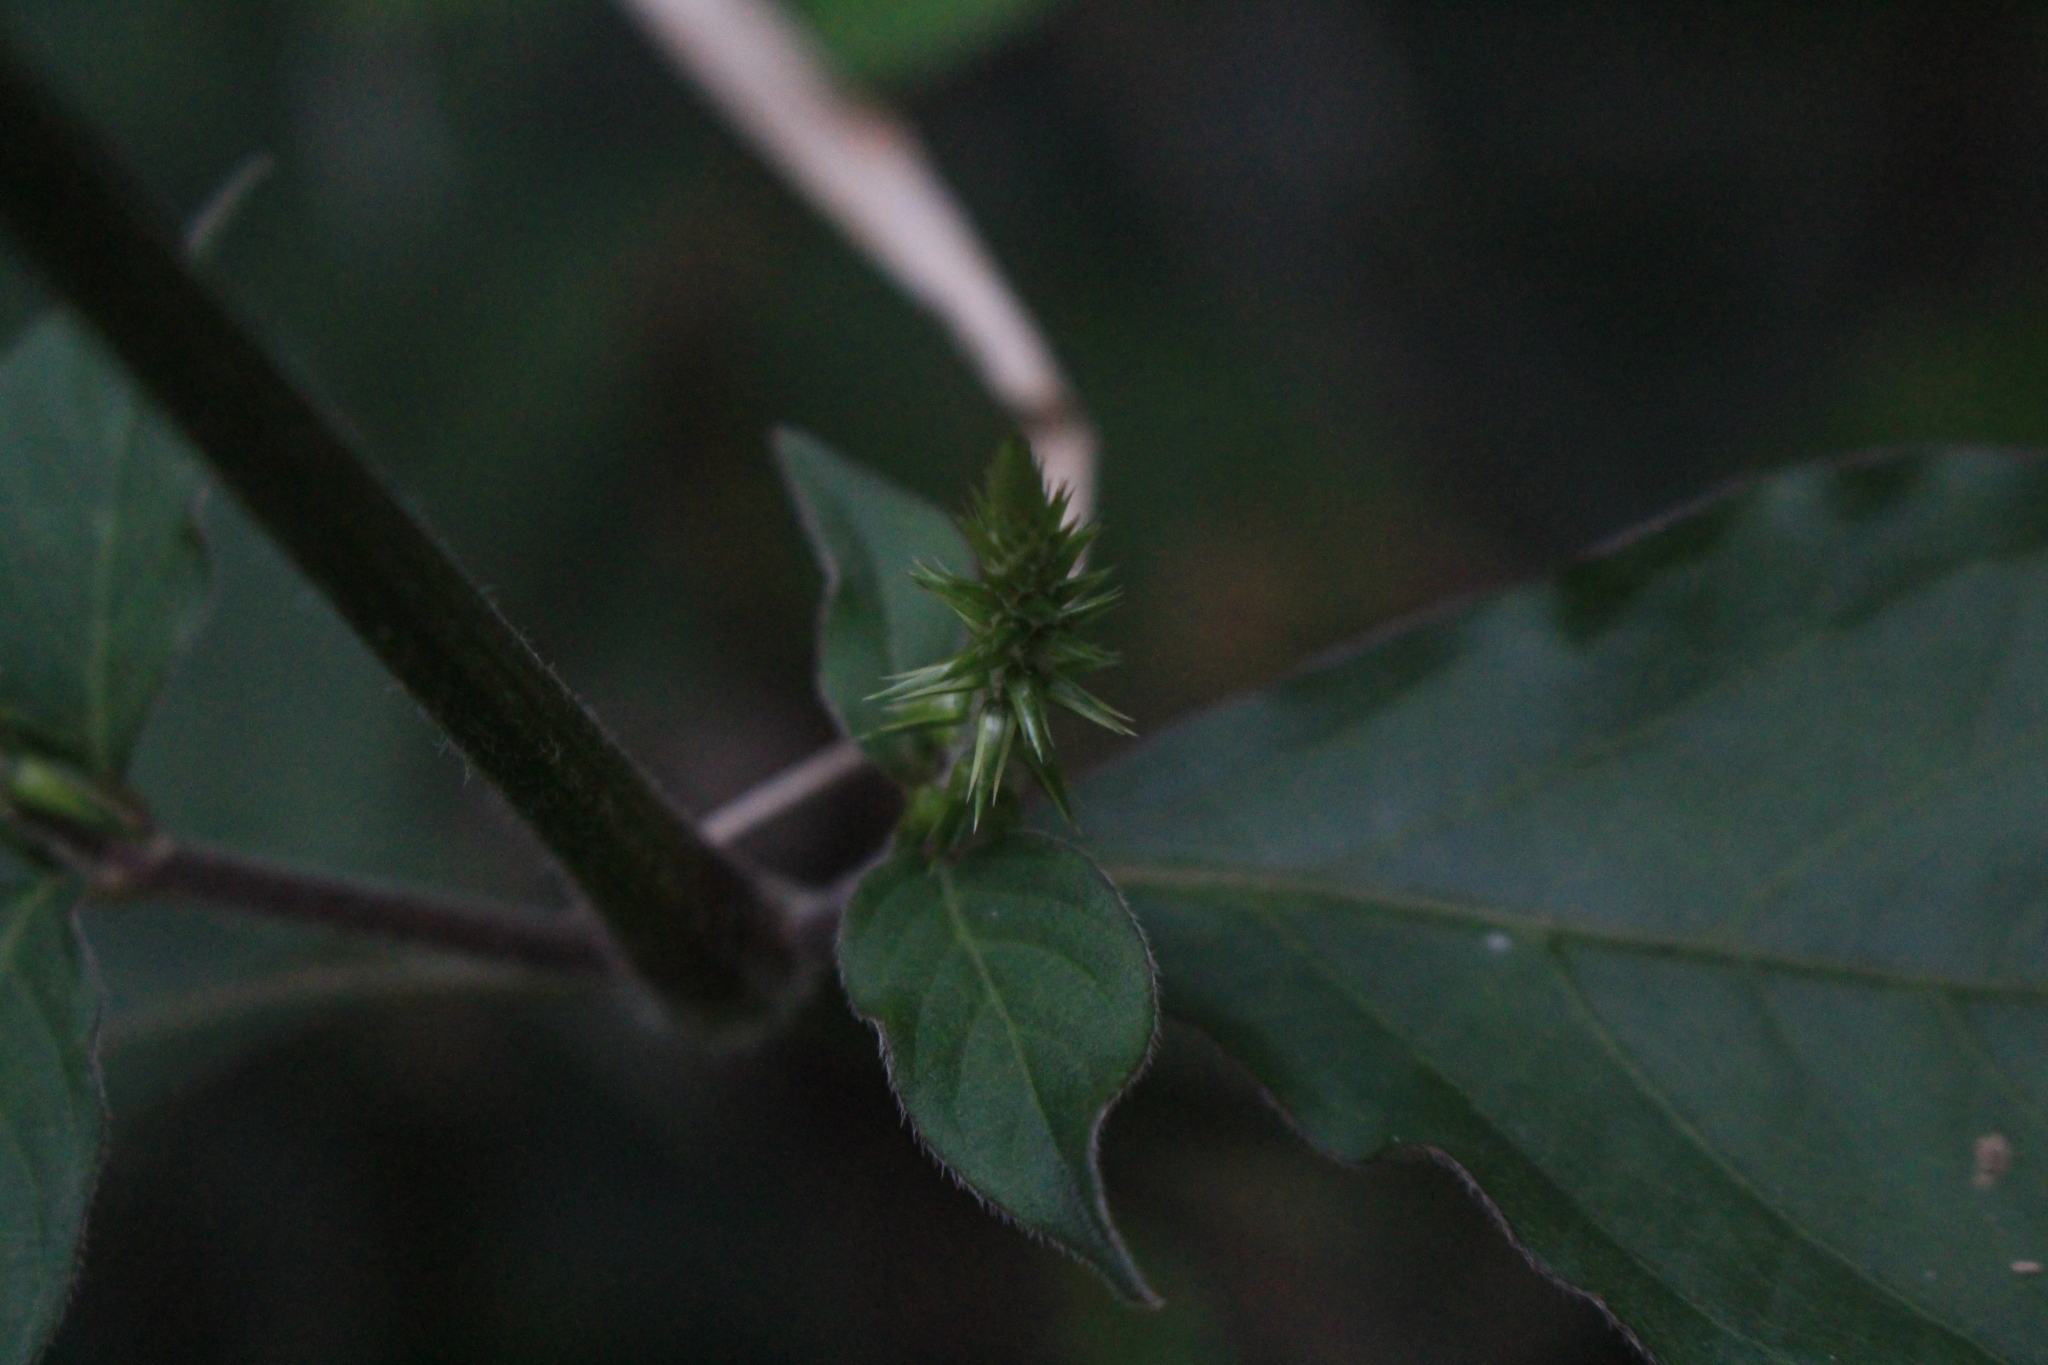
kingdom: Plantae
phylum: Tracheophyta
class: Magnoliopsida
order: Caryophyllales
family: Amaranthaceae
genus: Achyranthes
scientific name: Achyranthes aspera
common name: Devil's horsewhip
